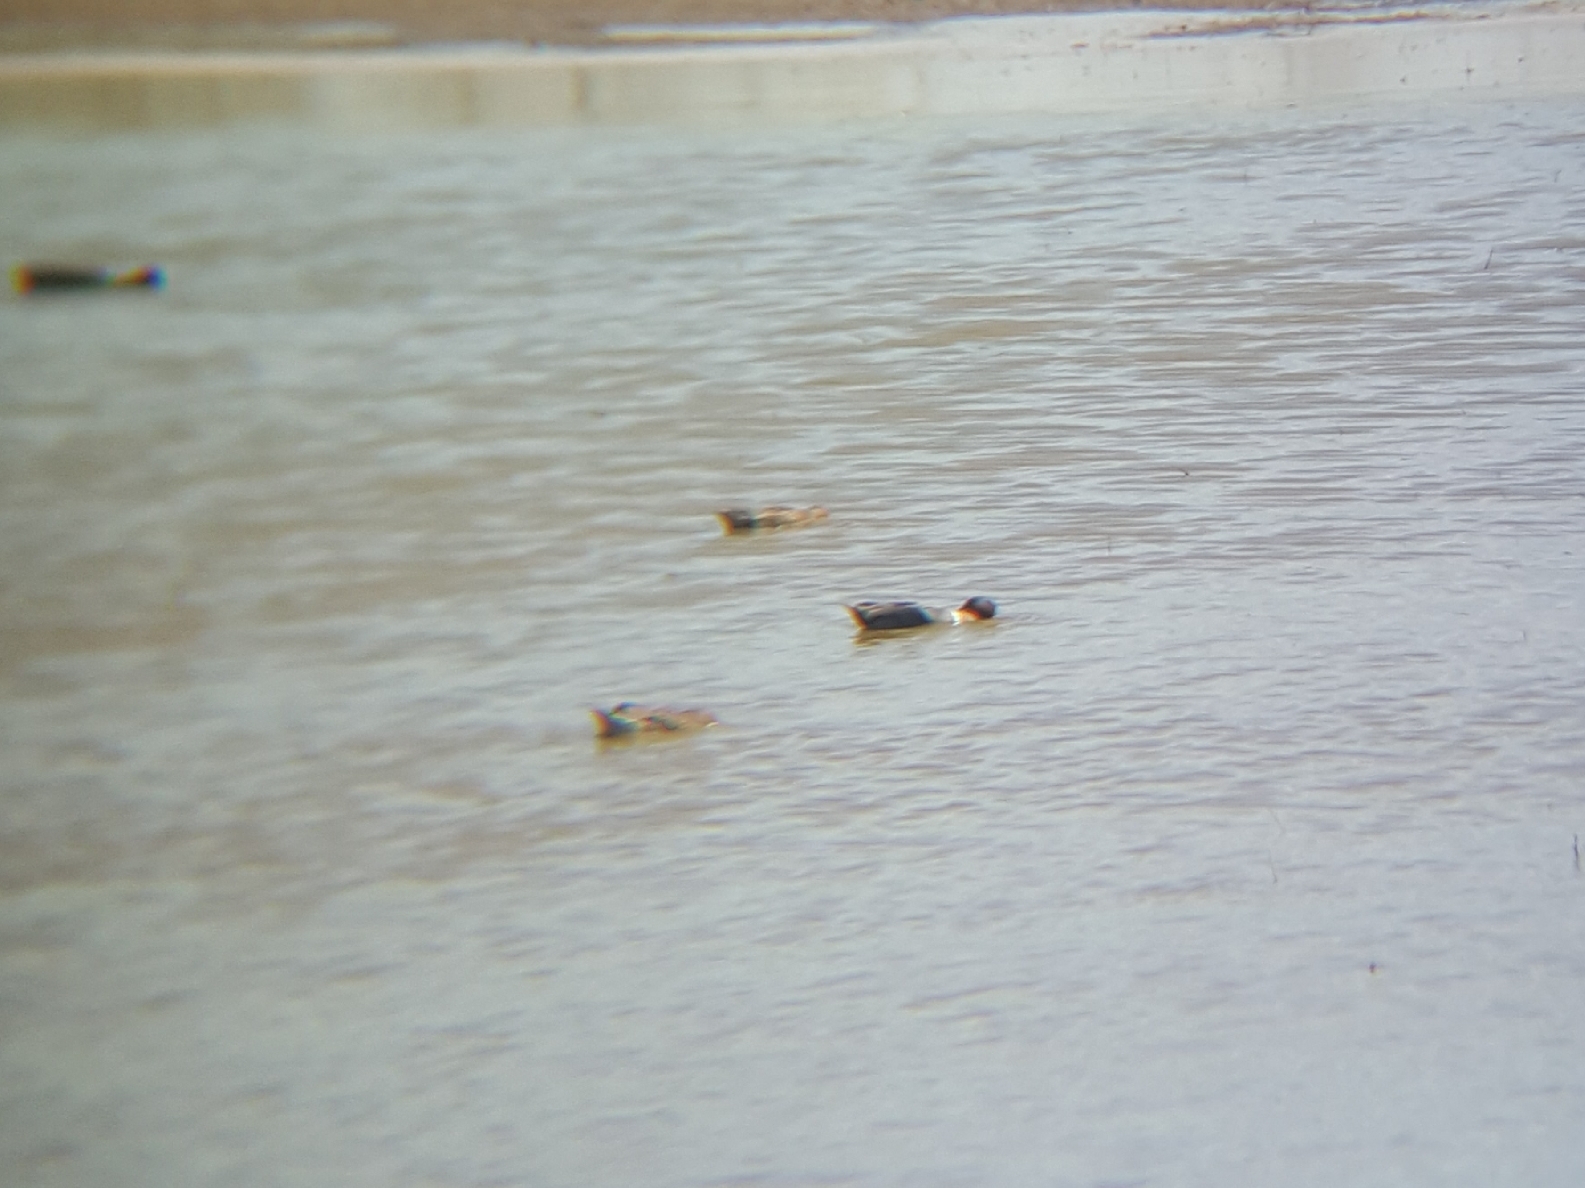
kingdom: Animalia
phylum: Chordata
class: Aves
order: Anseriformes
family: Anatidae
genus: Anas
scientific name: Anas crecca
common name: Eurasian teal
